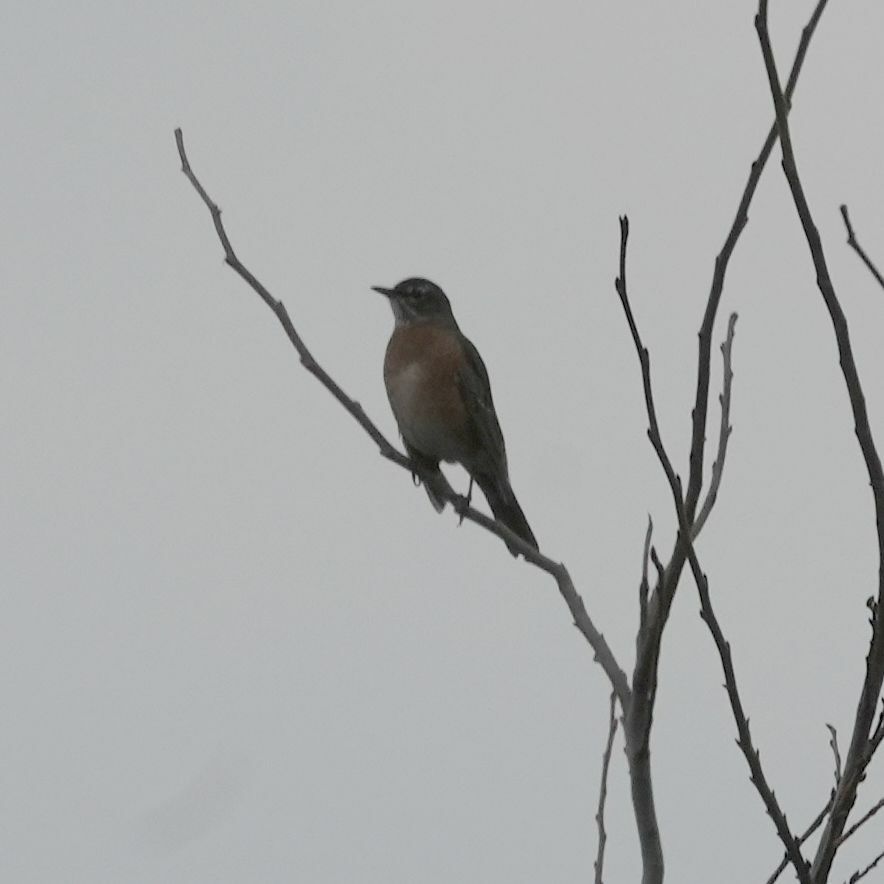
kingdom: Animalia
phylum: Chordata
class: Aves
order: Passeriformes
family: Turdidae
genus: Turdus
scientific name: Turdus migratorius
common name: American robin
